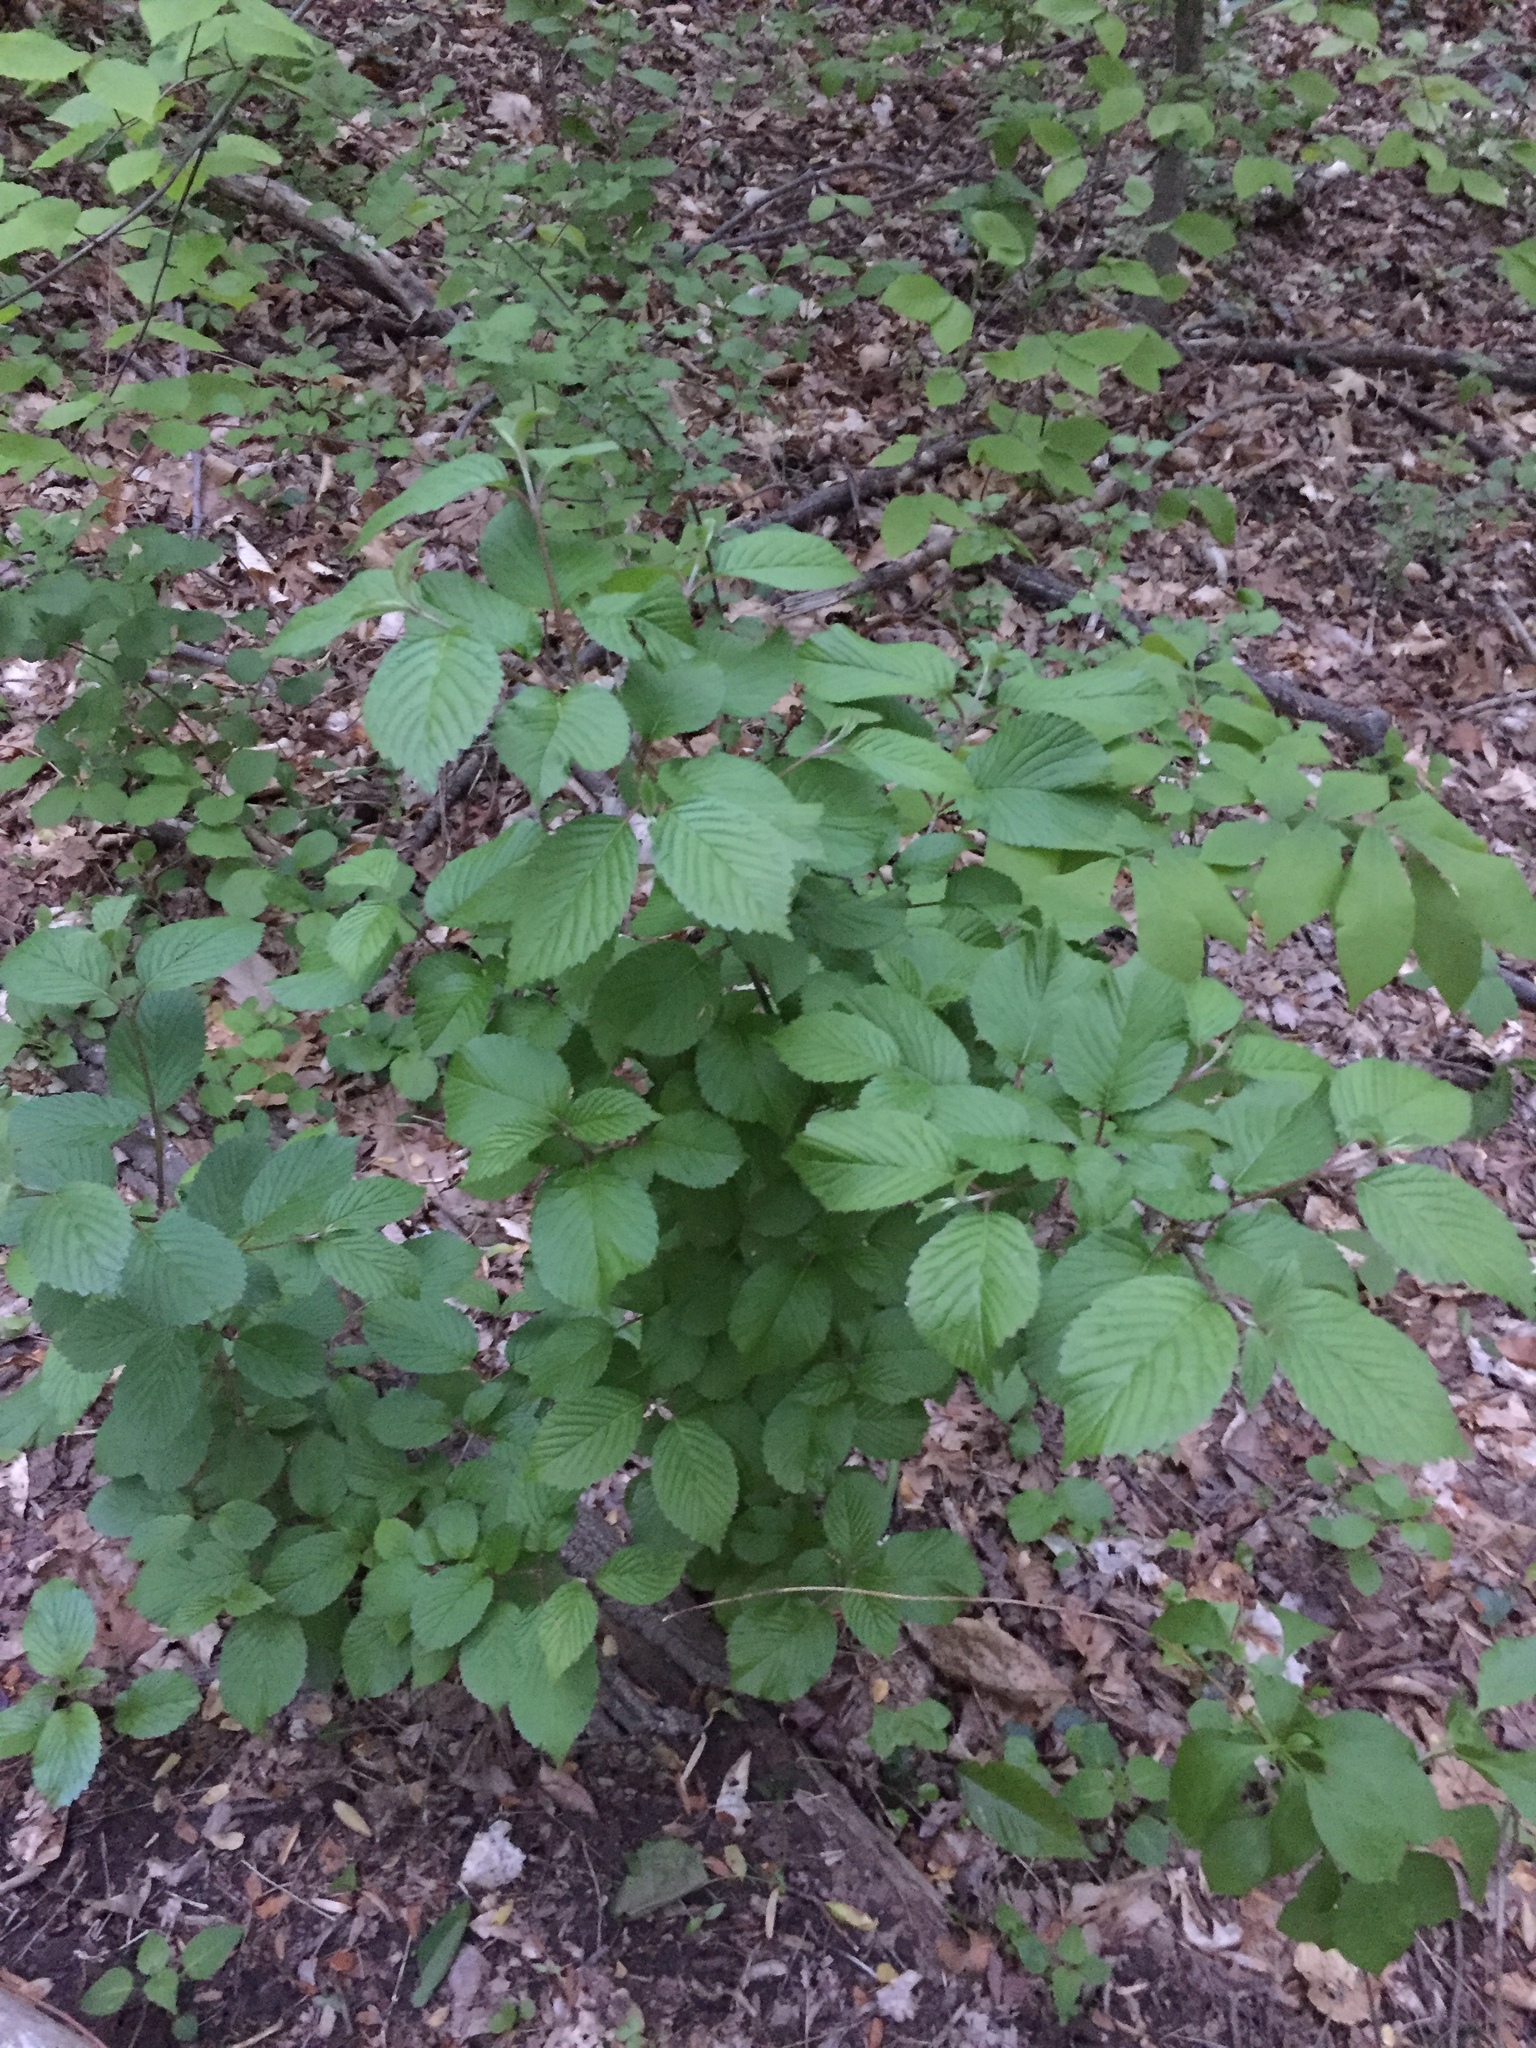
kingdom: Plantae
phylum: Tracheophyta
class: Magnoliopsida
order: Dipsacales
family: Viburnaceae
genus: Viburnum
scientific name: Viburnum plicatum
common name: Japanese snowball
